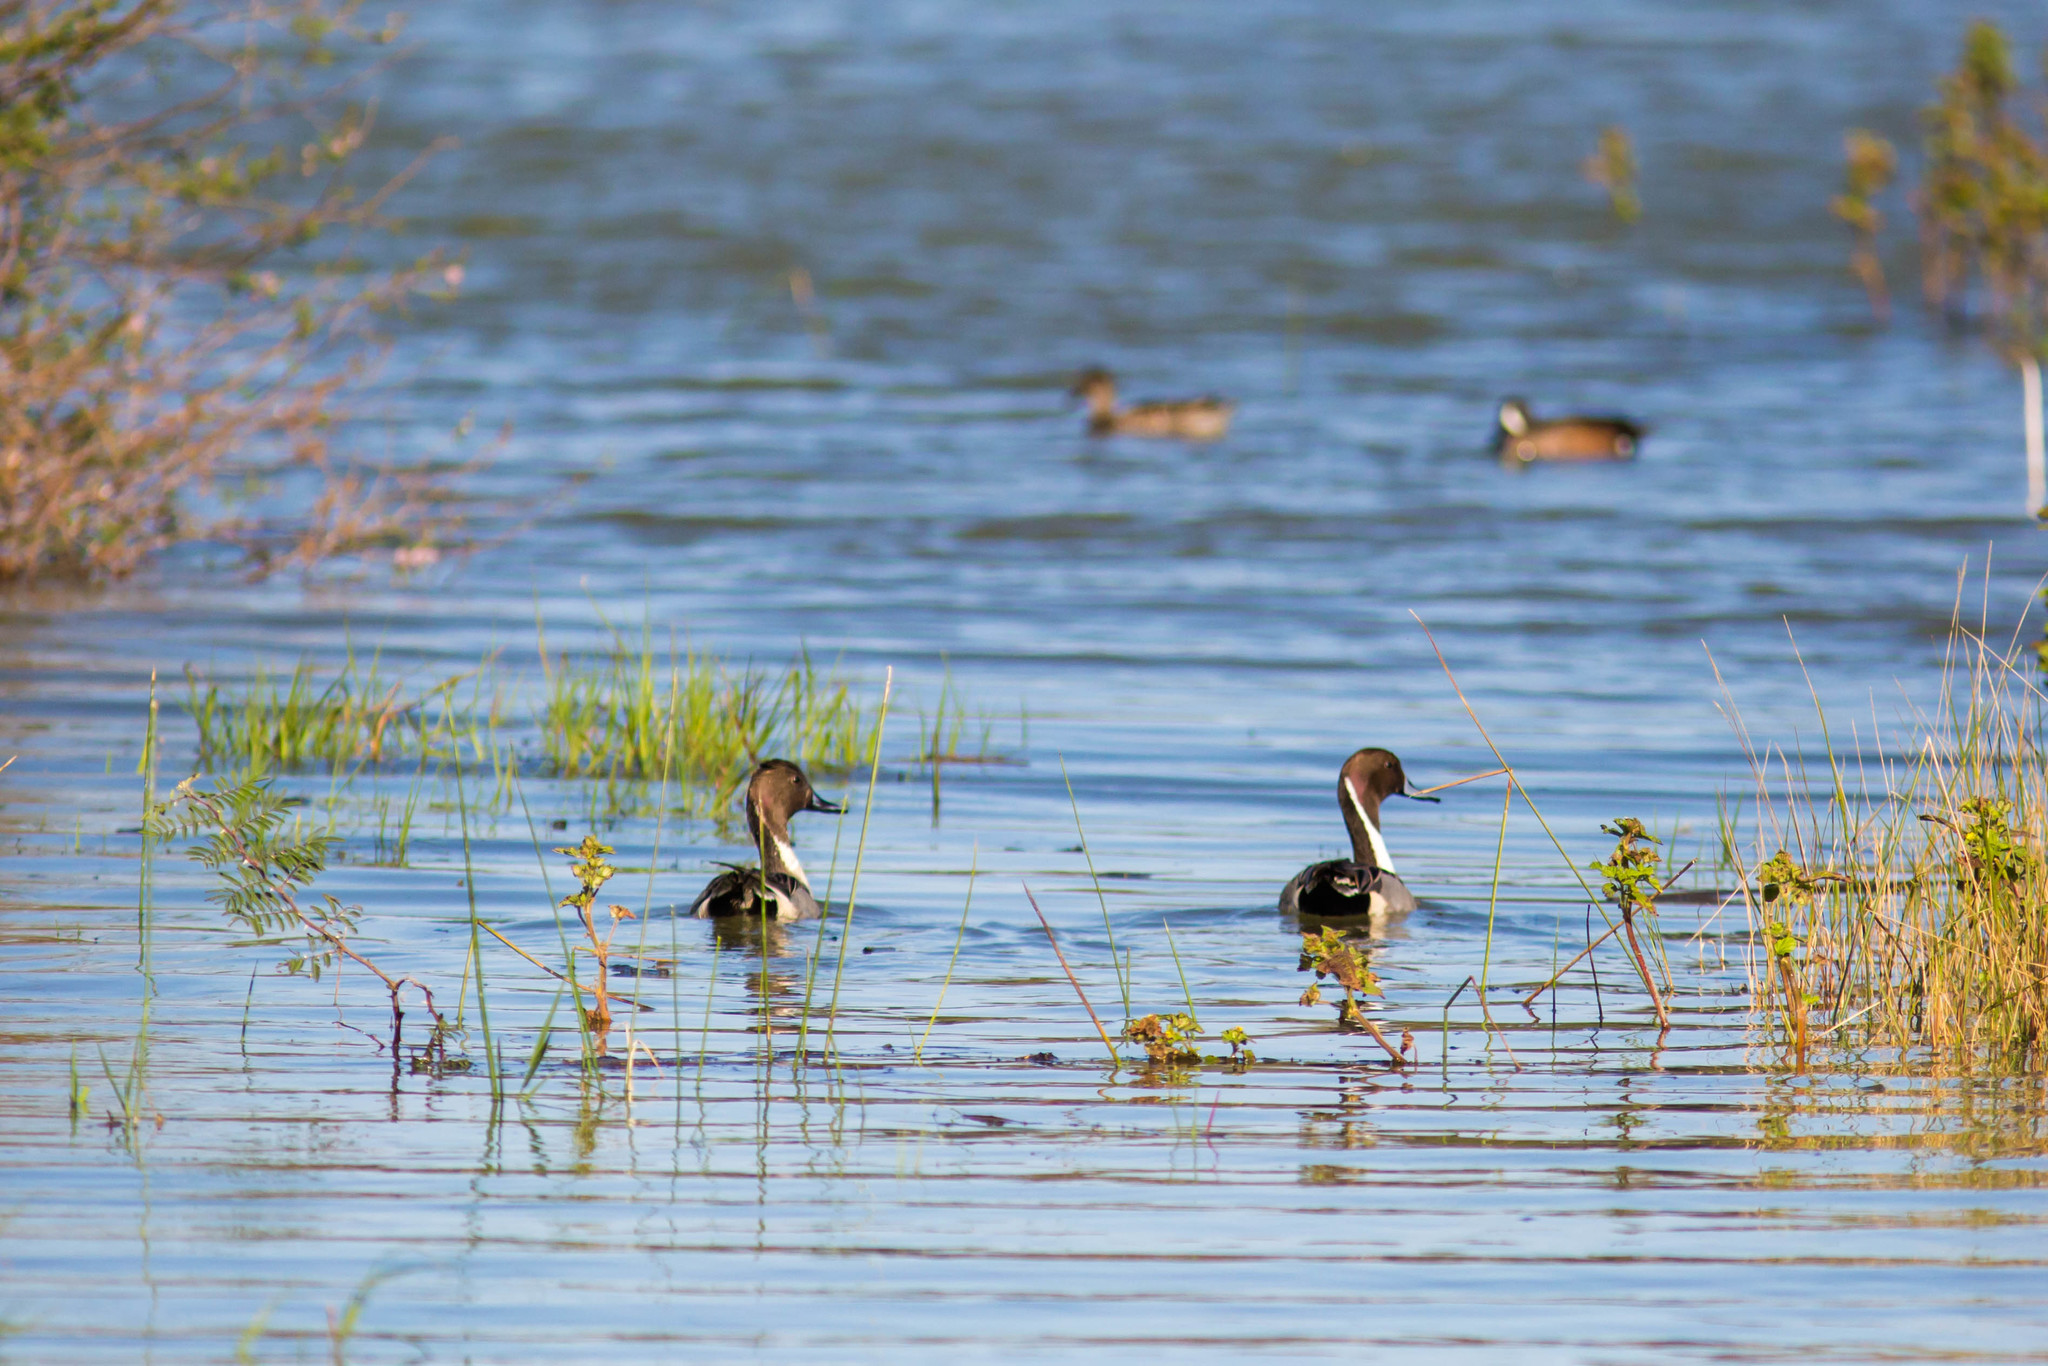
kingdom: Animalia
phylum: Chordata
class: Aves
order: Anseriformes
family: Anatidae
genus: Anas
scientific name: Anas acuta
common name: Northern pintail
